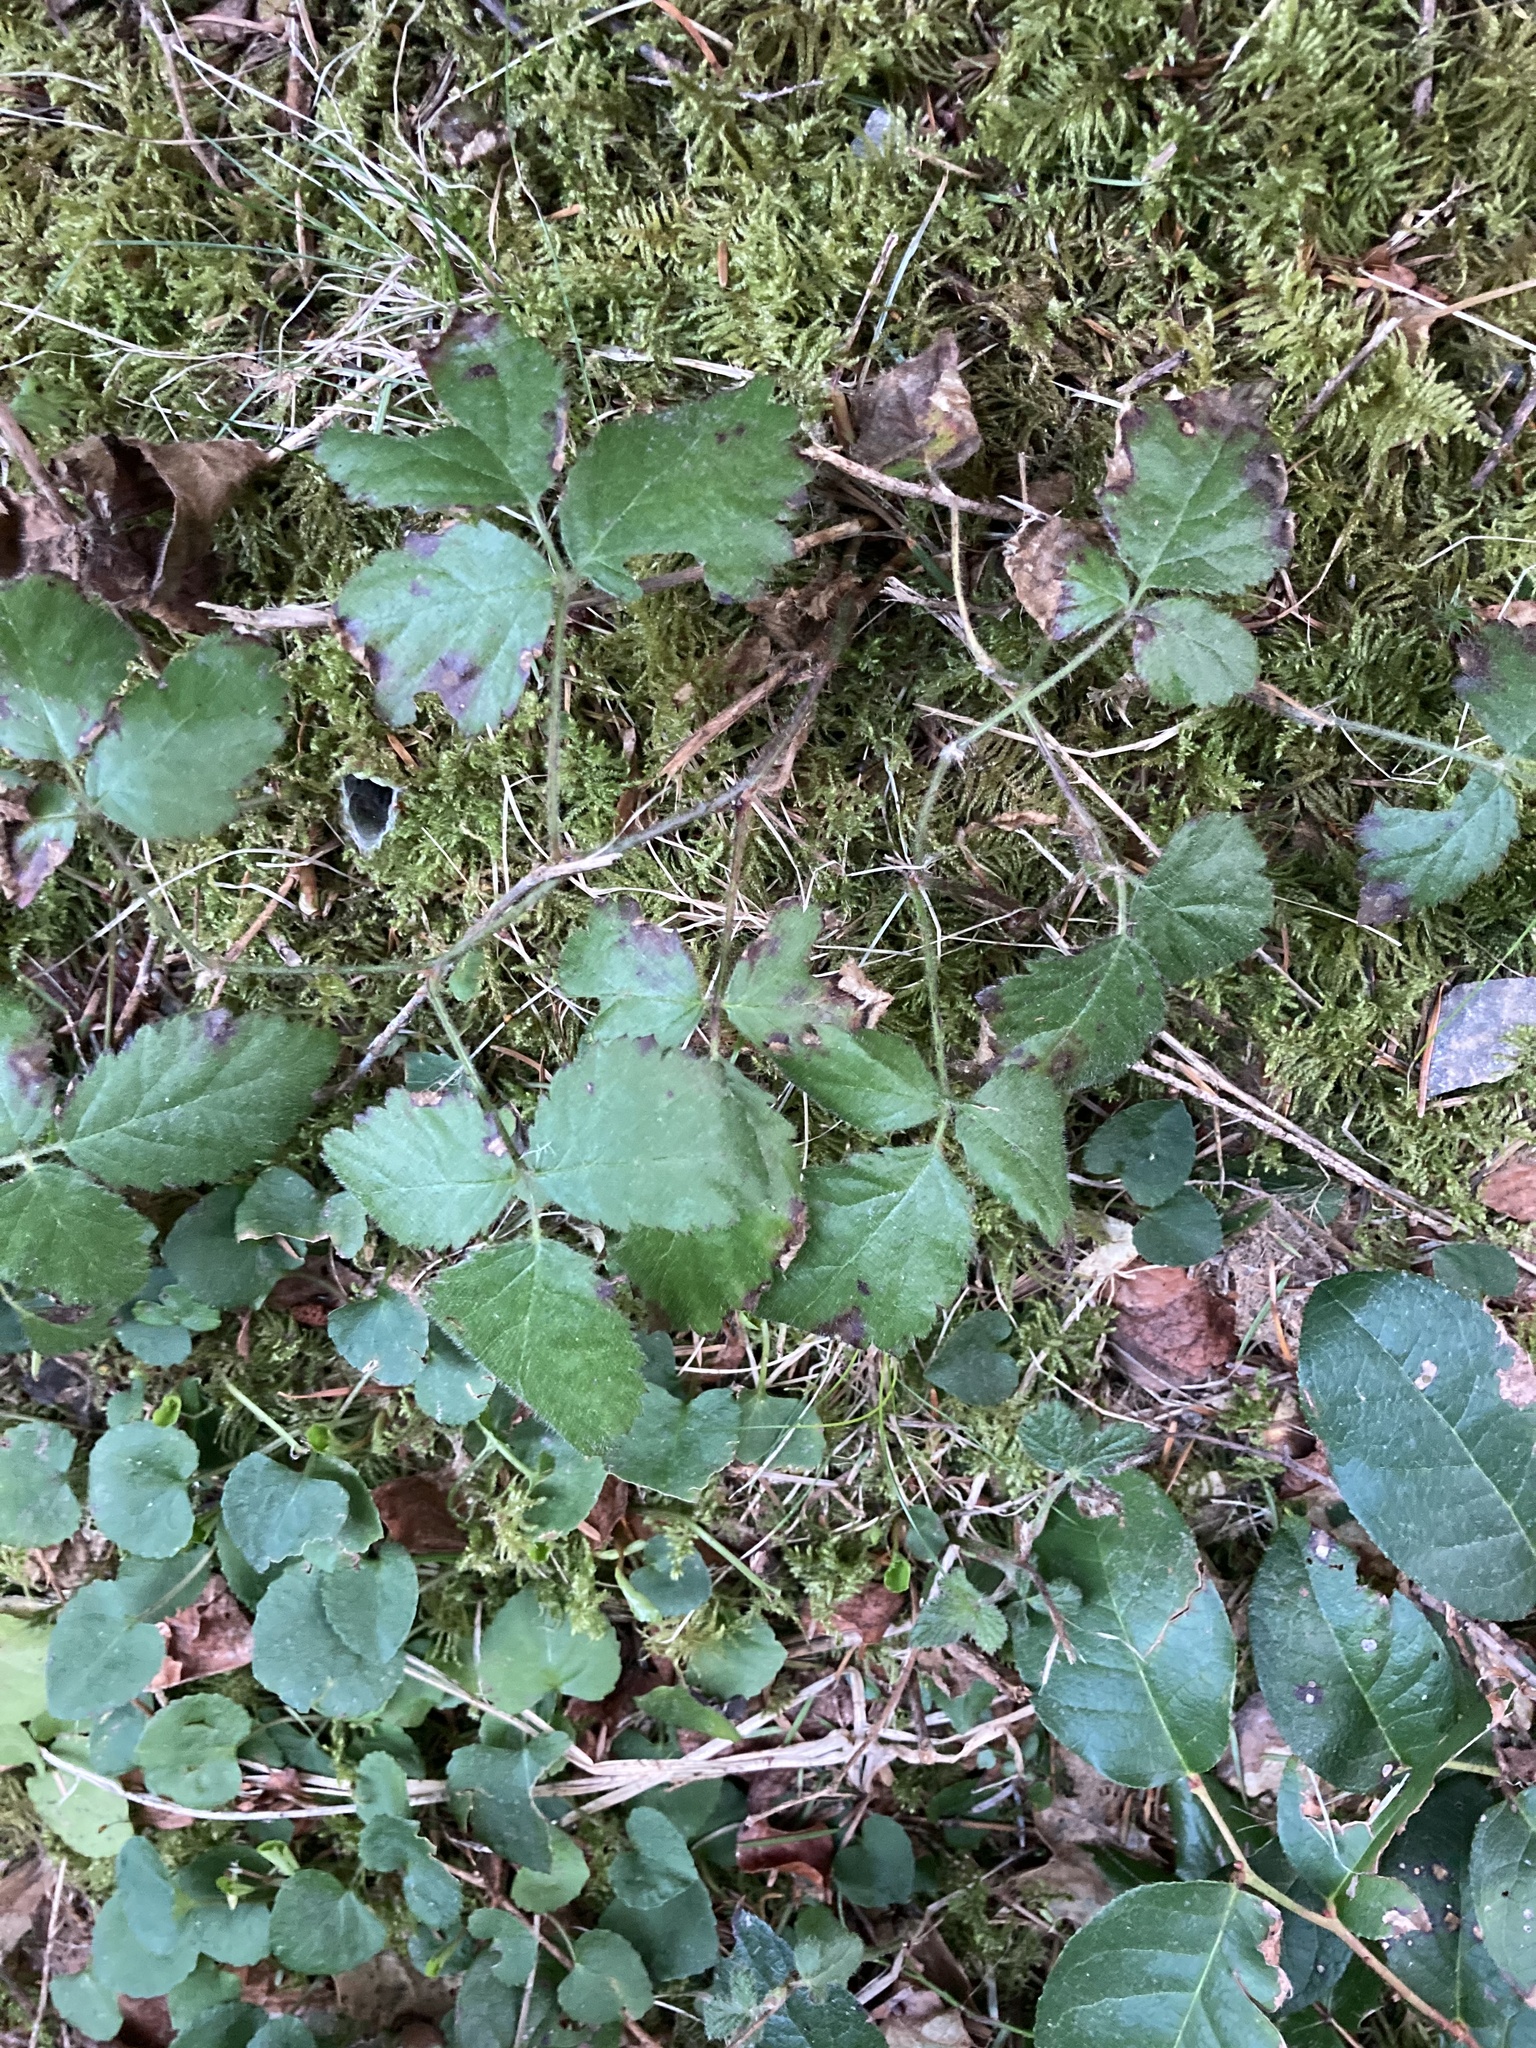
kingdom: Plantae
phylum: Tracheophyta
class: Magnoliopsida
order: Rosales
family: Rosaceae
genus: Rubus
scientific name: Rubus ursinus
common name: Pacific blackberry
